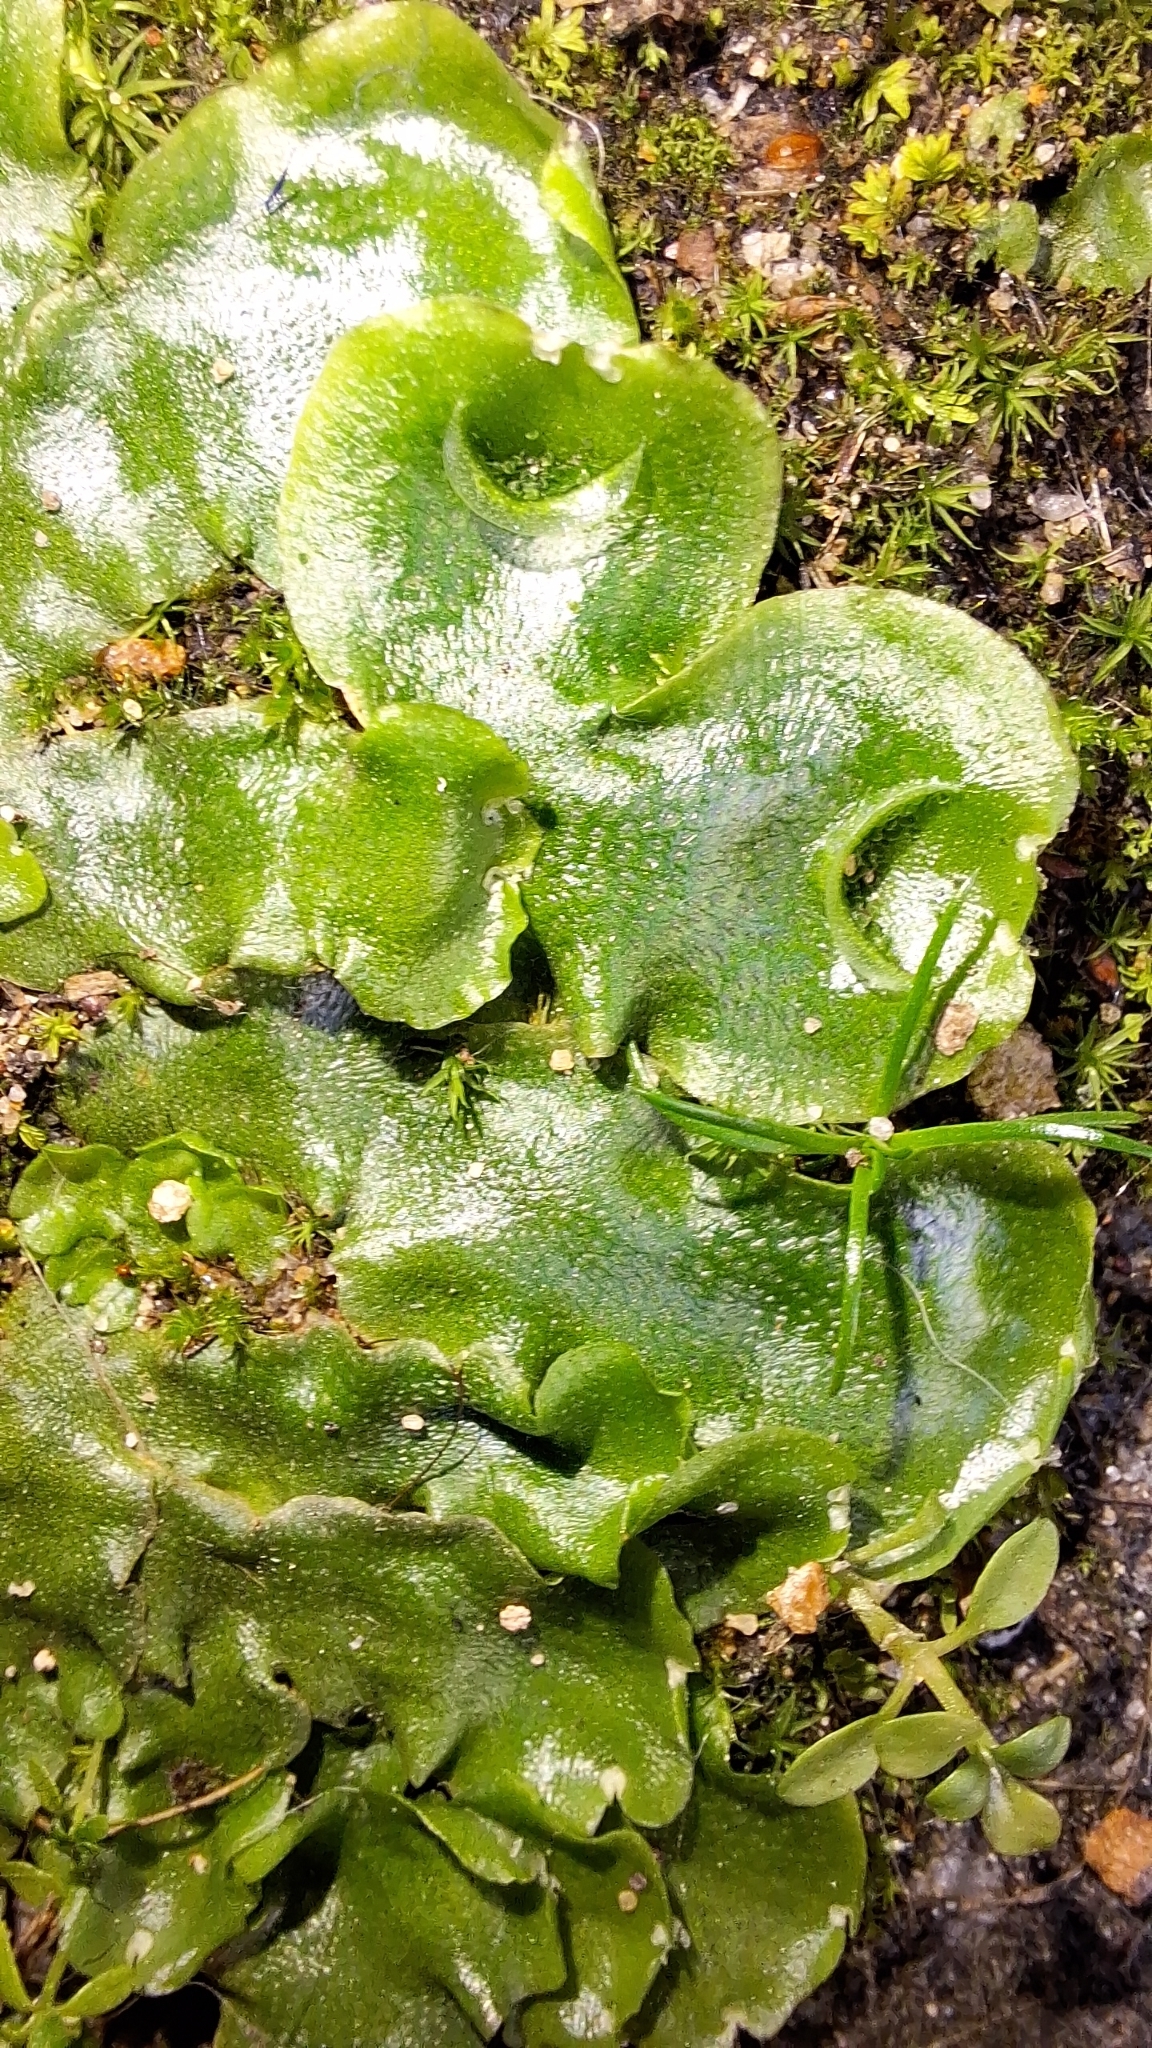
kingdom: Plantae
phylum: Marchantiophyta
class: Marchantiopsida
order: Lunulariales
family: Lunulariaceae
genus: Lunularia
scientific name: Lunularia cruciata
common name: Crescent-cup liverwort
